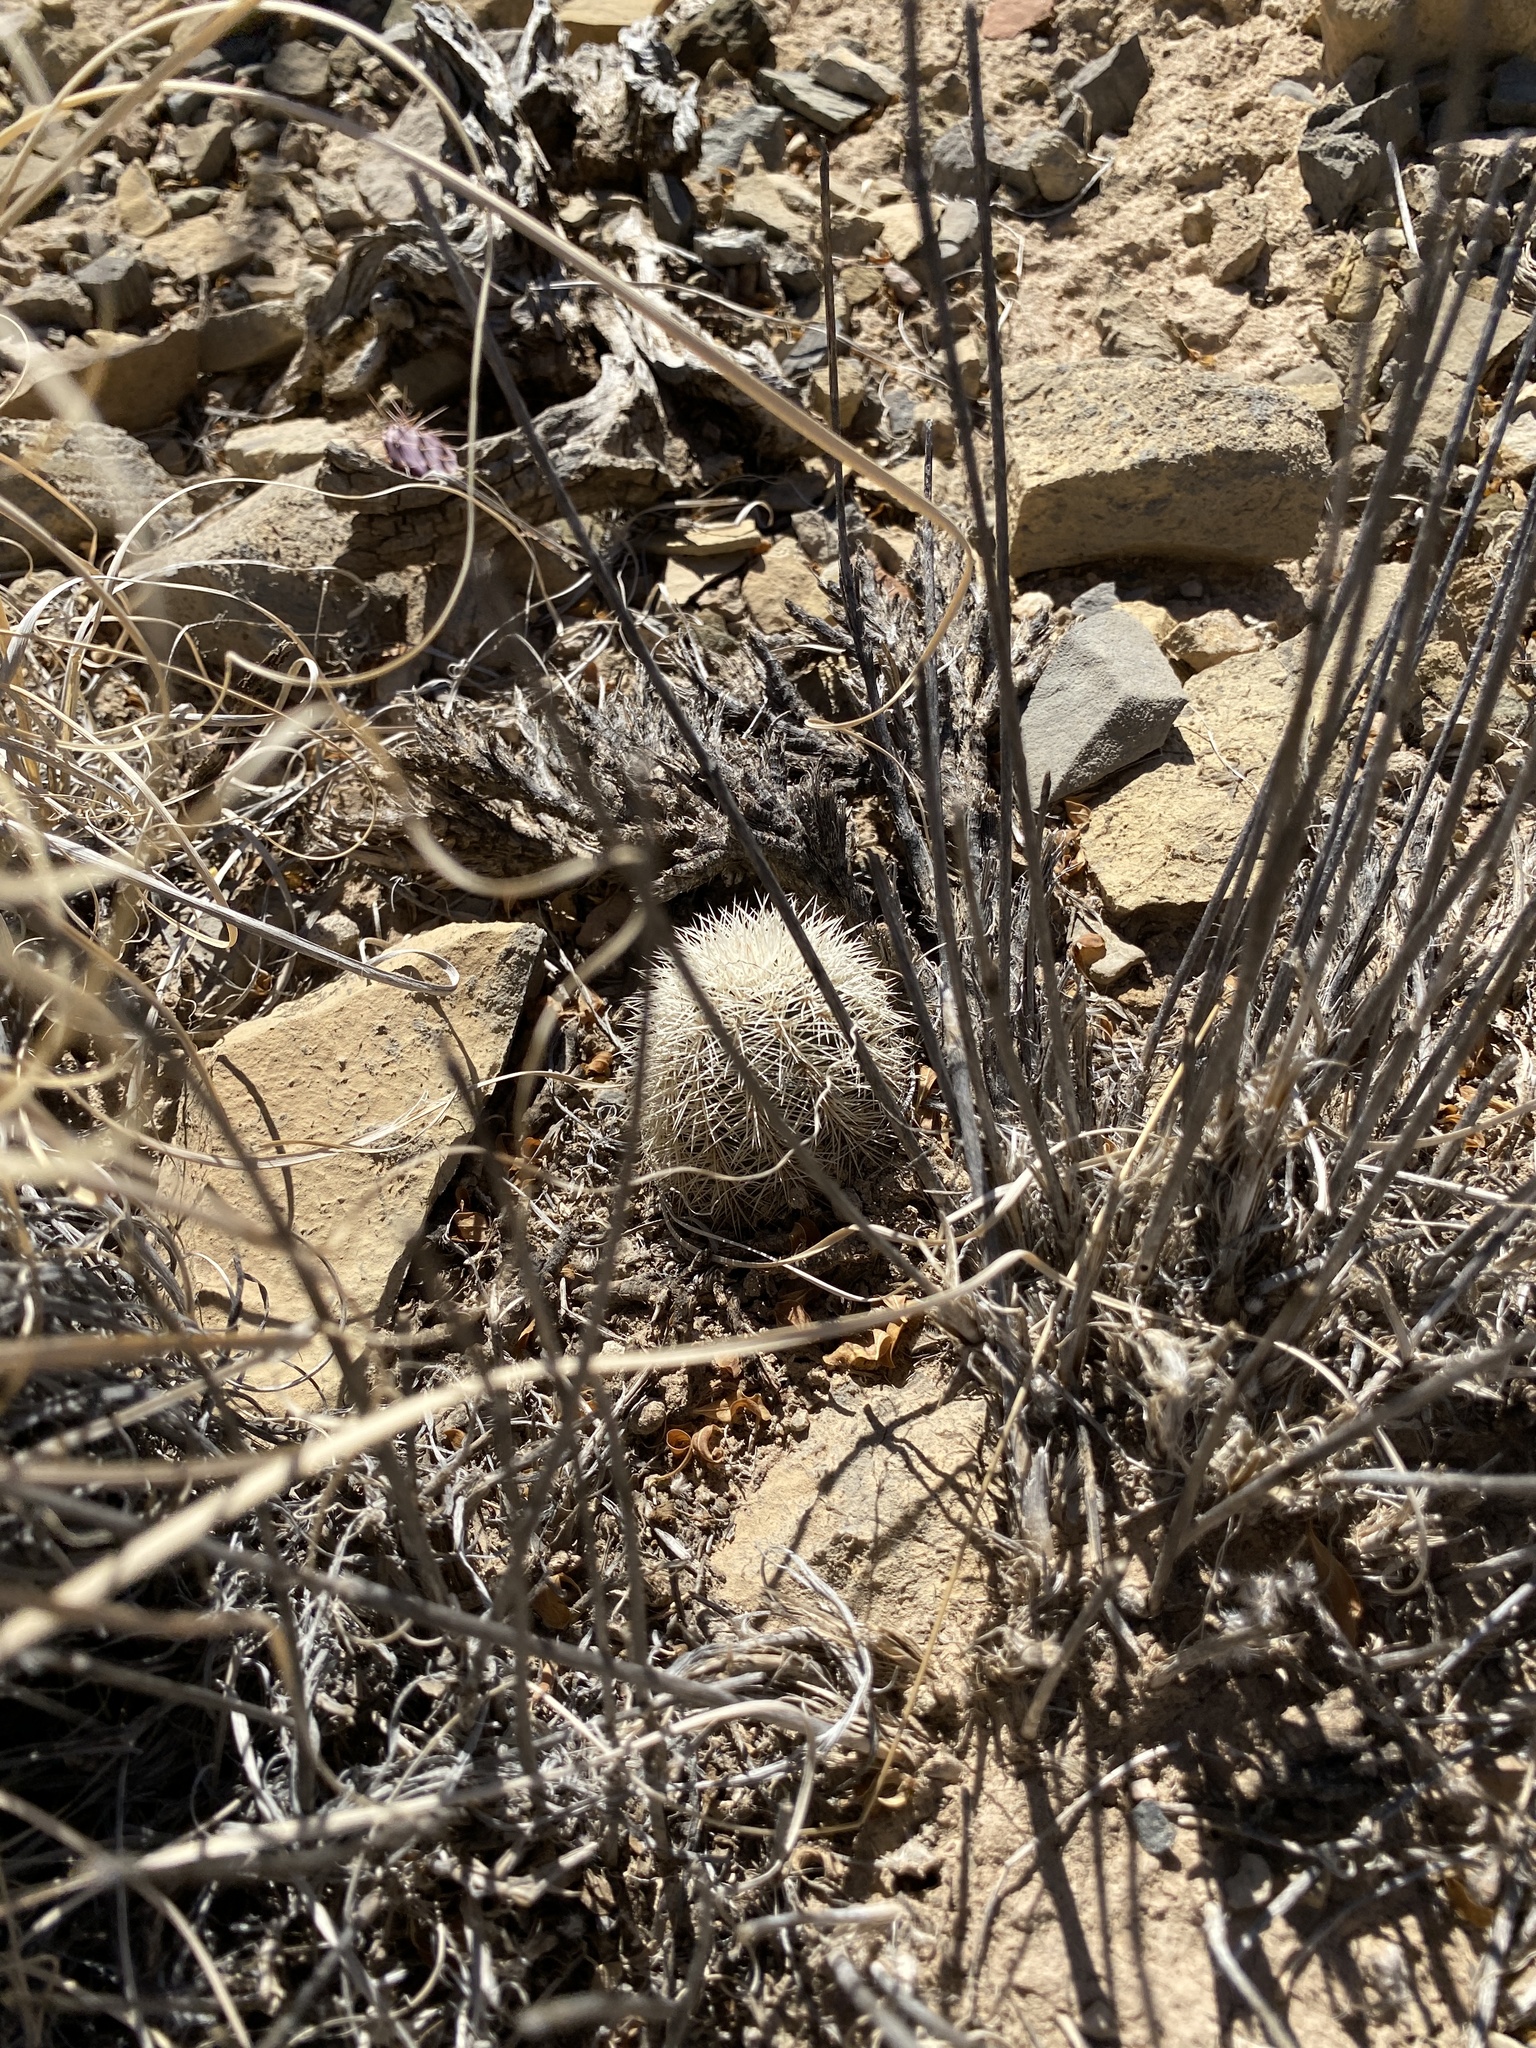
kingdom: Plantae
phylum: Tracheophyta
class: Magnoliopsida
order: Caryophyllales
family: Cactaceae
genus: Echinocereus
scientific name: Echinocereus dasyacanthus
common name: Spiny hedgehog cactus
